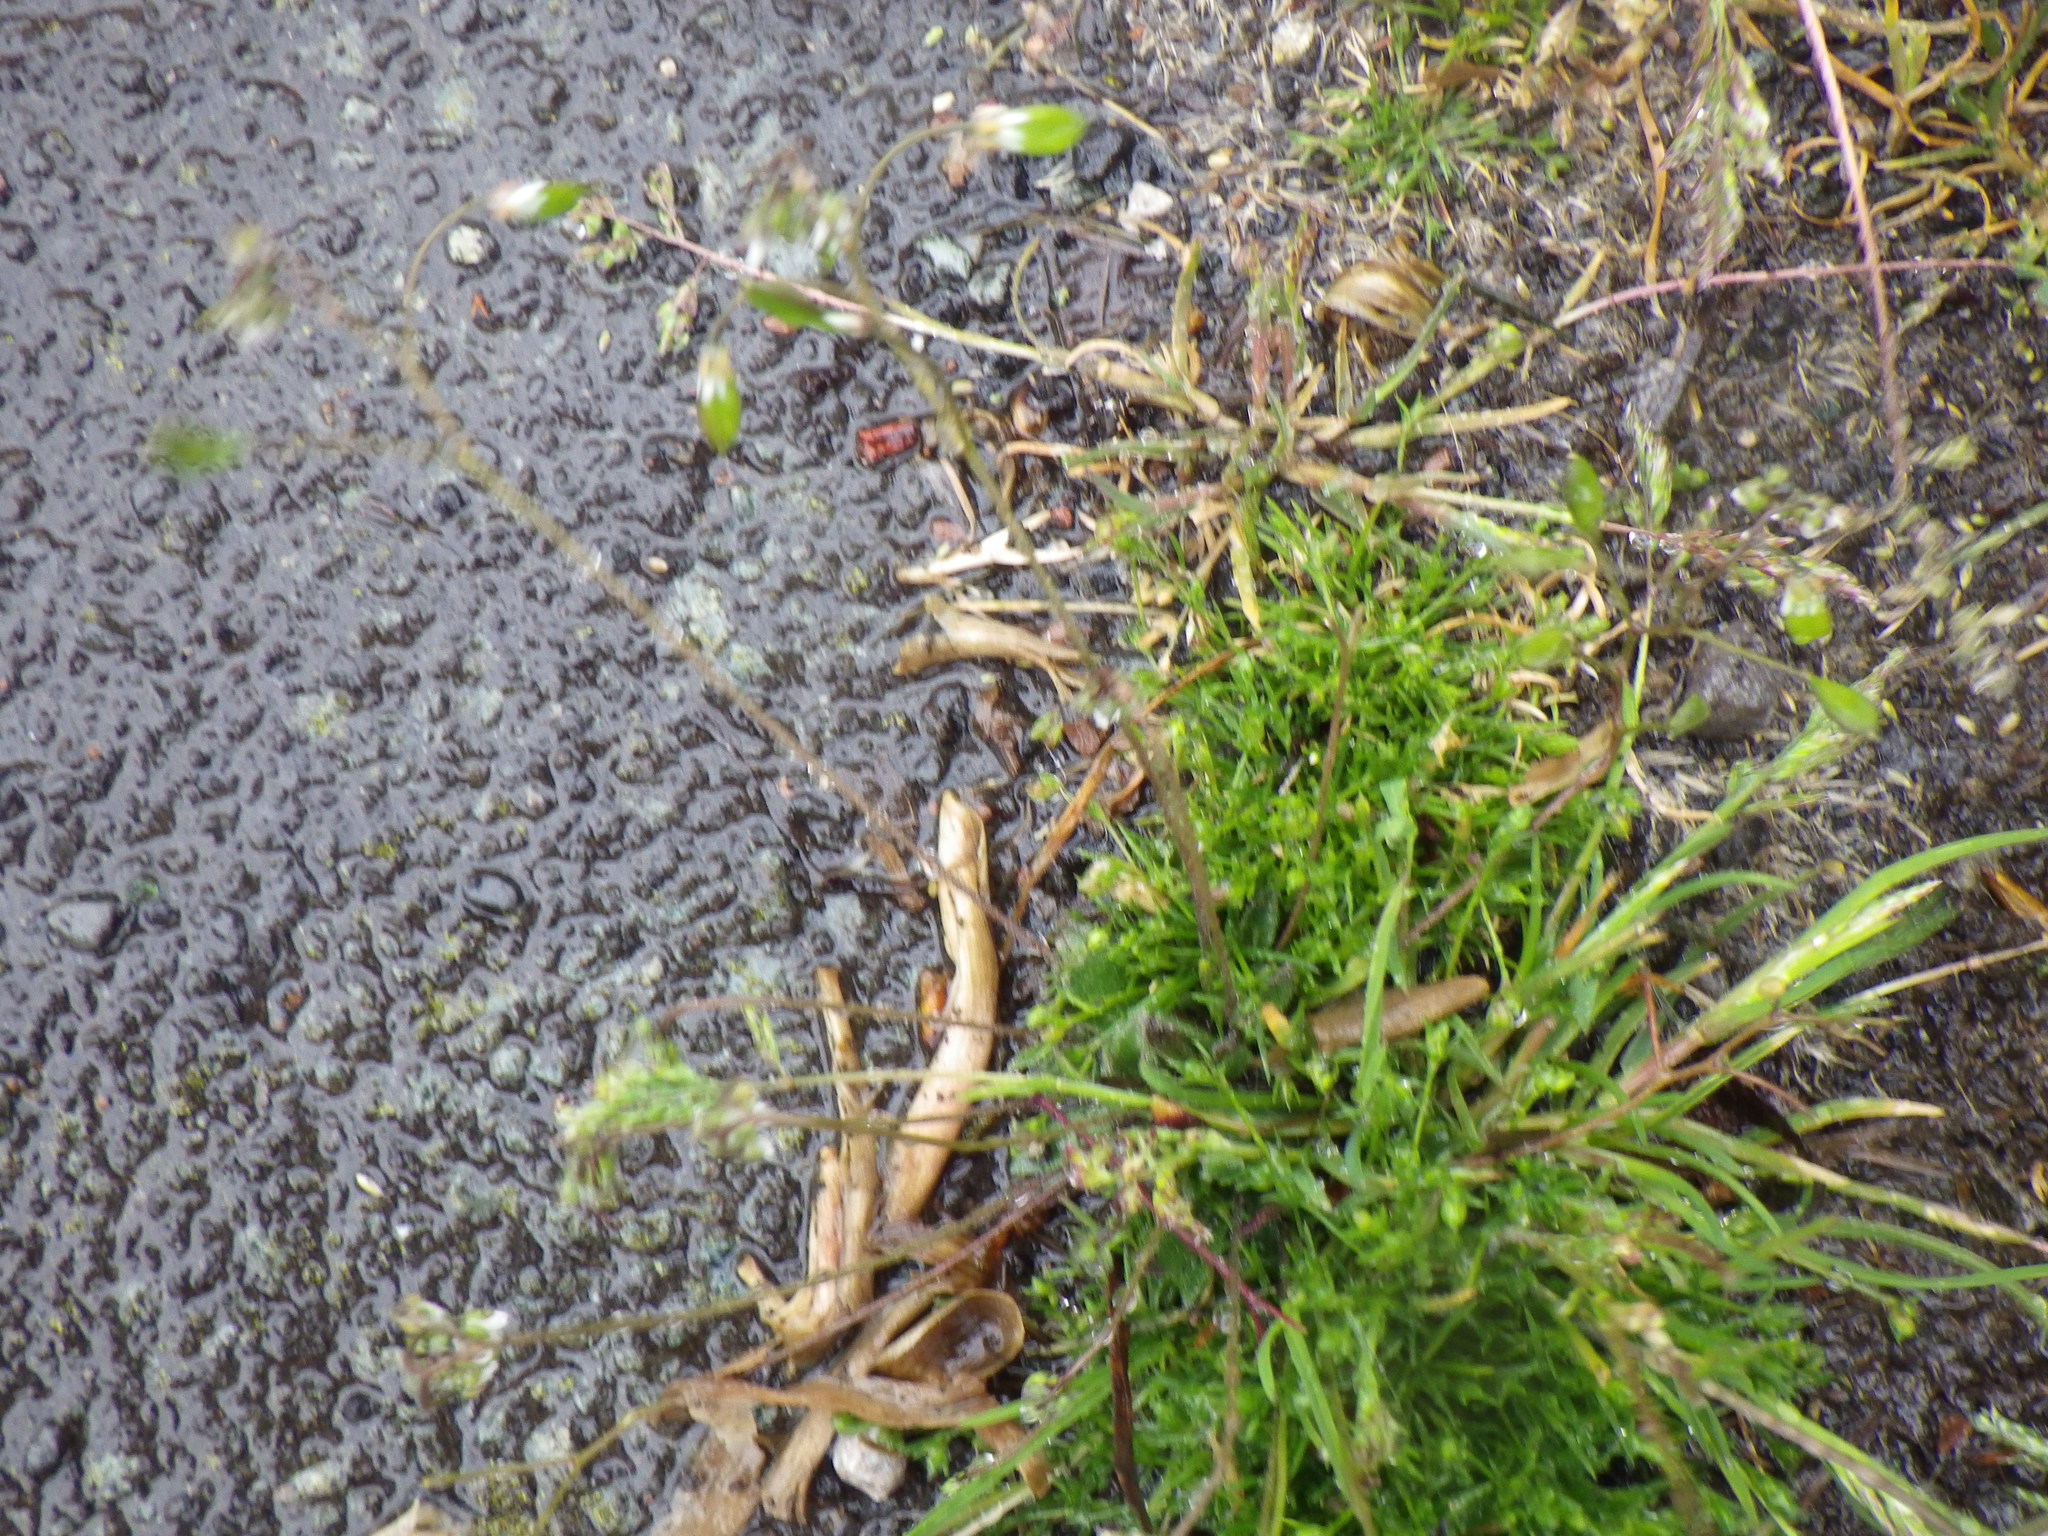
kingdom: Plantae
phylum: Tracheophyta
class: Magnoliopsida
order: Caryophyllales
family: Caryophyllaceae
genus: Sagina
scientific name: Sagina procumbens
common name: Procumbent pearlwort
